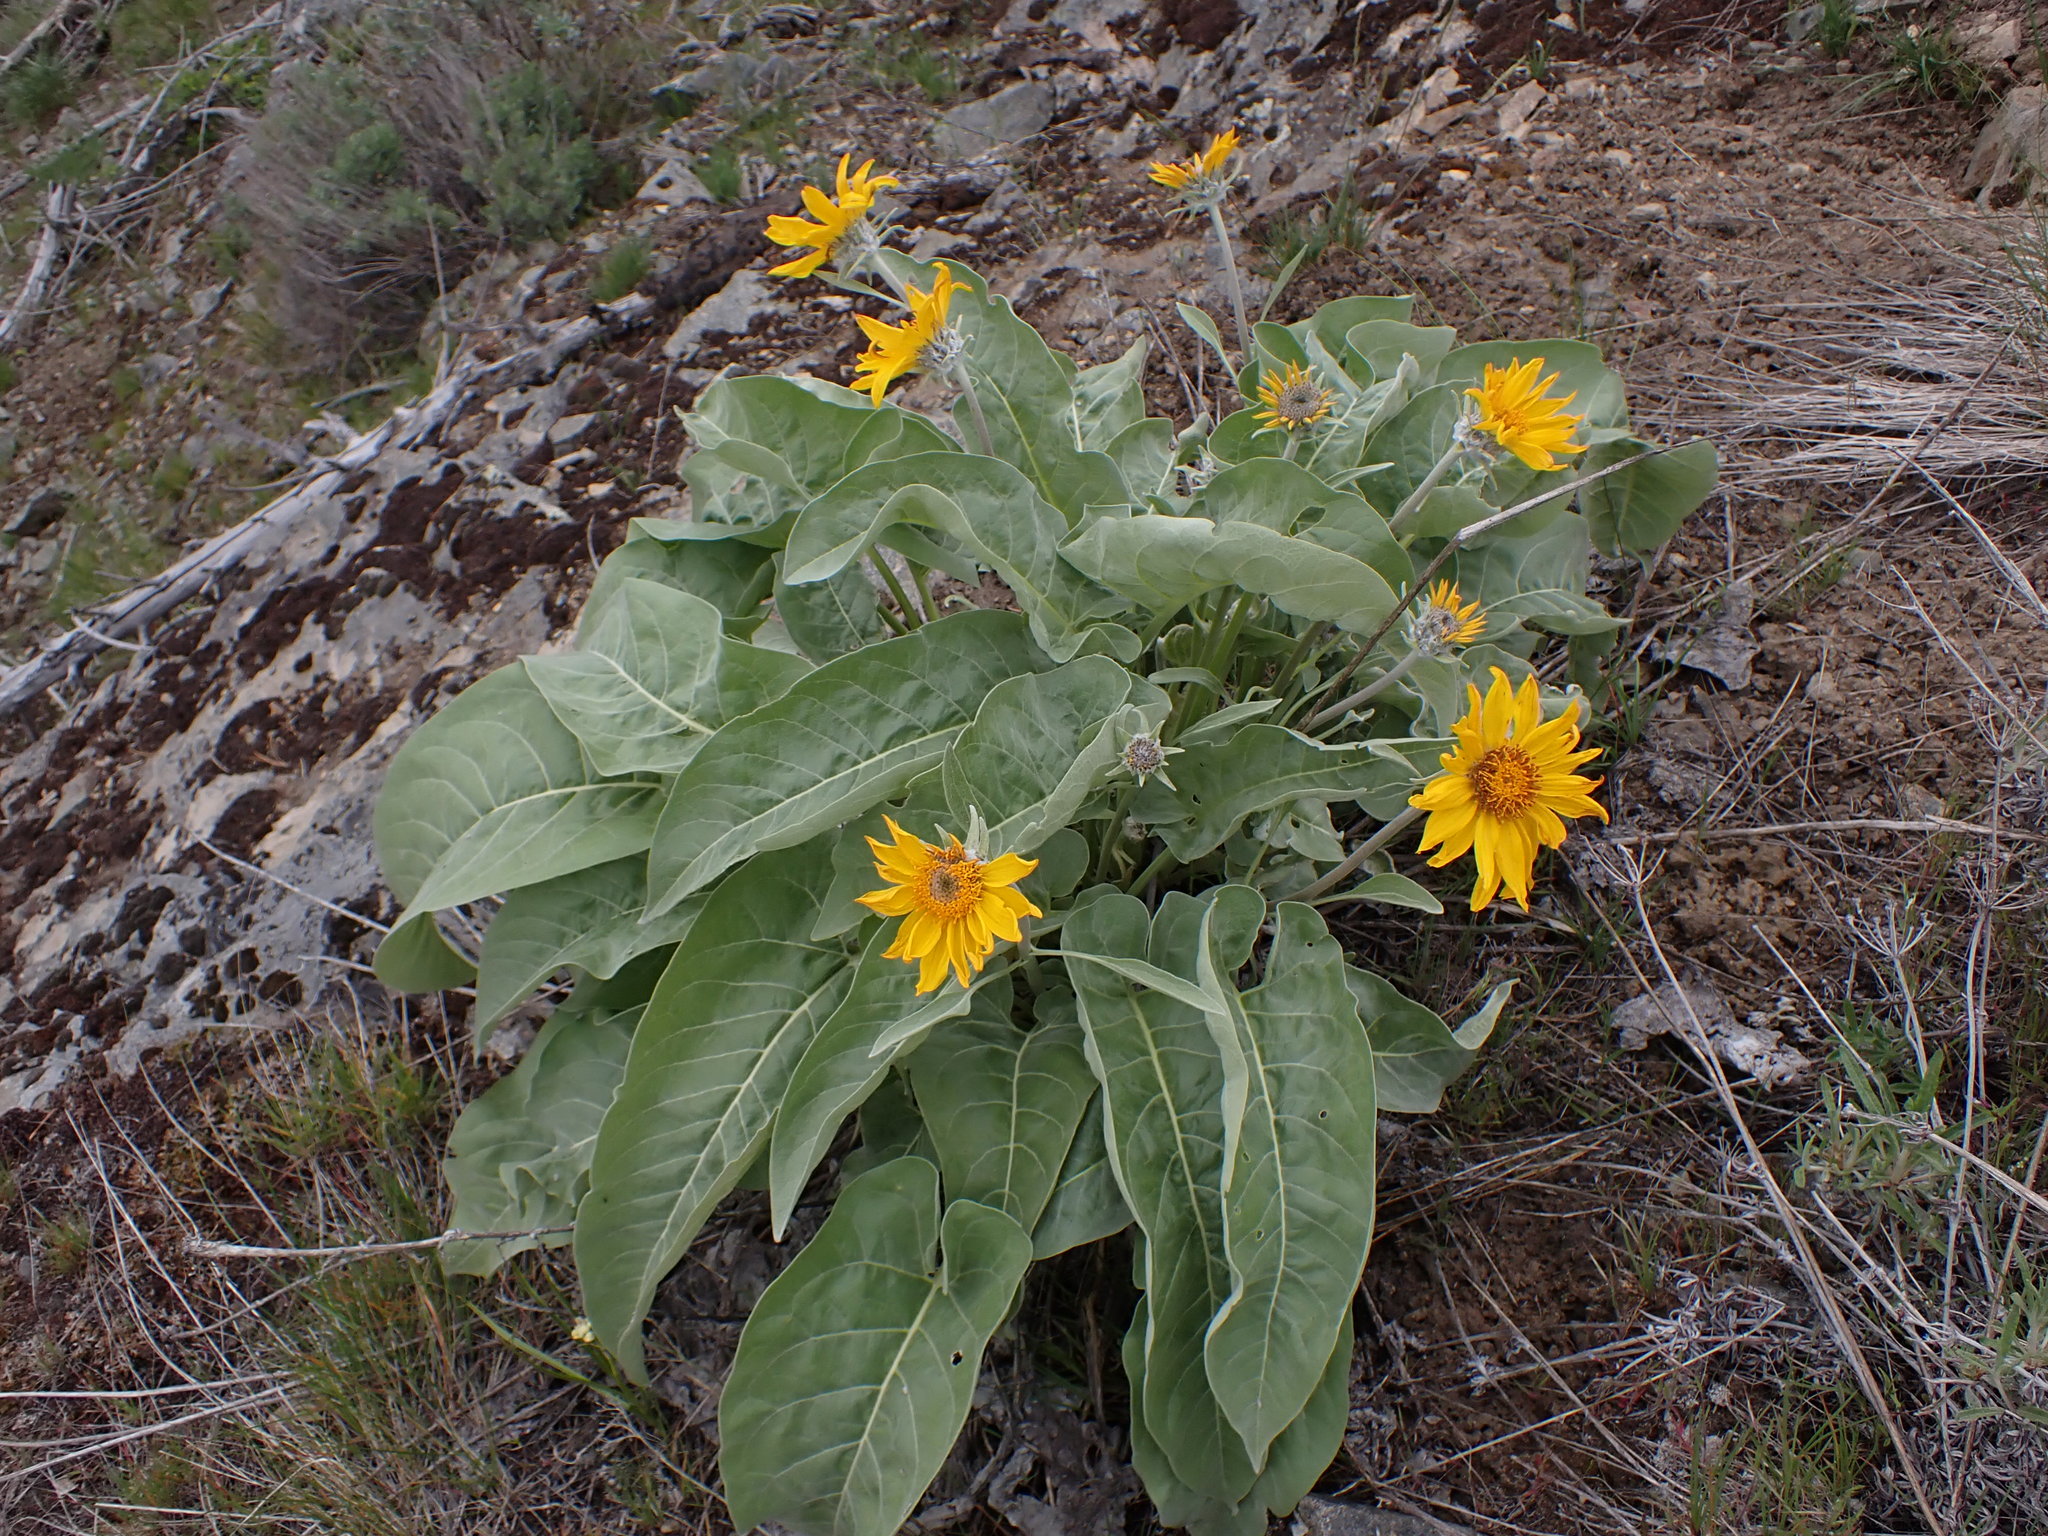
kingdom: Plantae
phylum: Tracheophyta
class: Magnoliopsida
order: Asterales
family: Asteraceae
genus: Wyethia
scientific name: Wyethia sagittata
